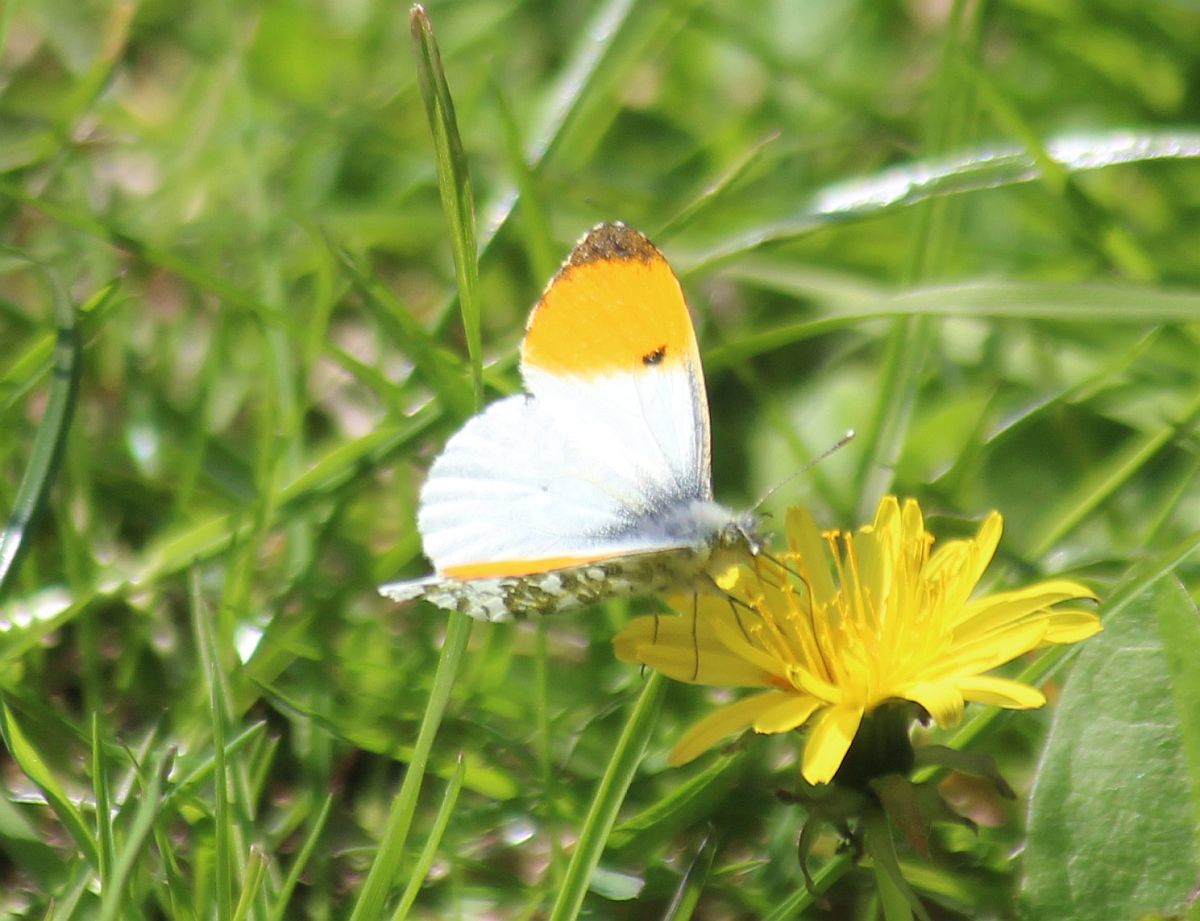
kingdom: Animalia
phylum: Arthropoda
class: Insecta
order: Lepidoptera
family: Pieridae
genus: Anthocharis
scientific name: Anthocharis cardamines
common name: Orange-tip
